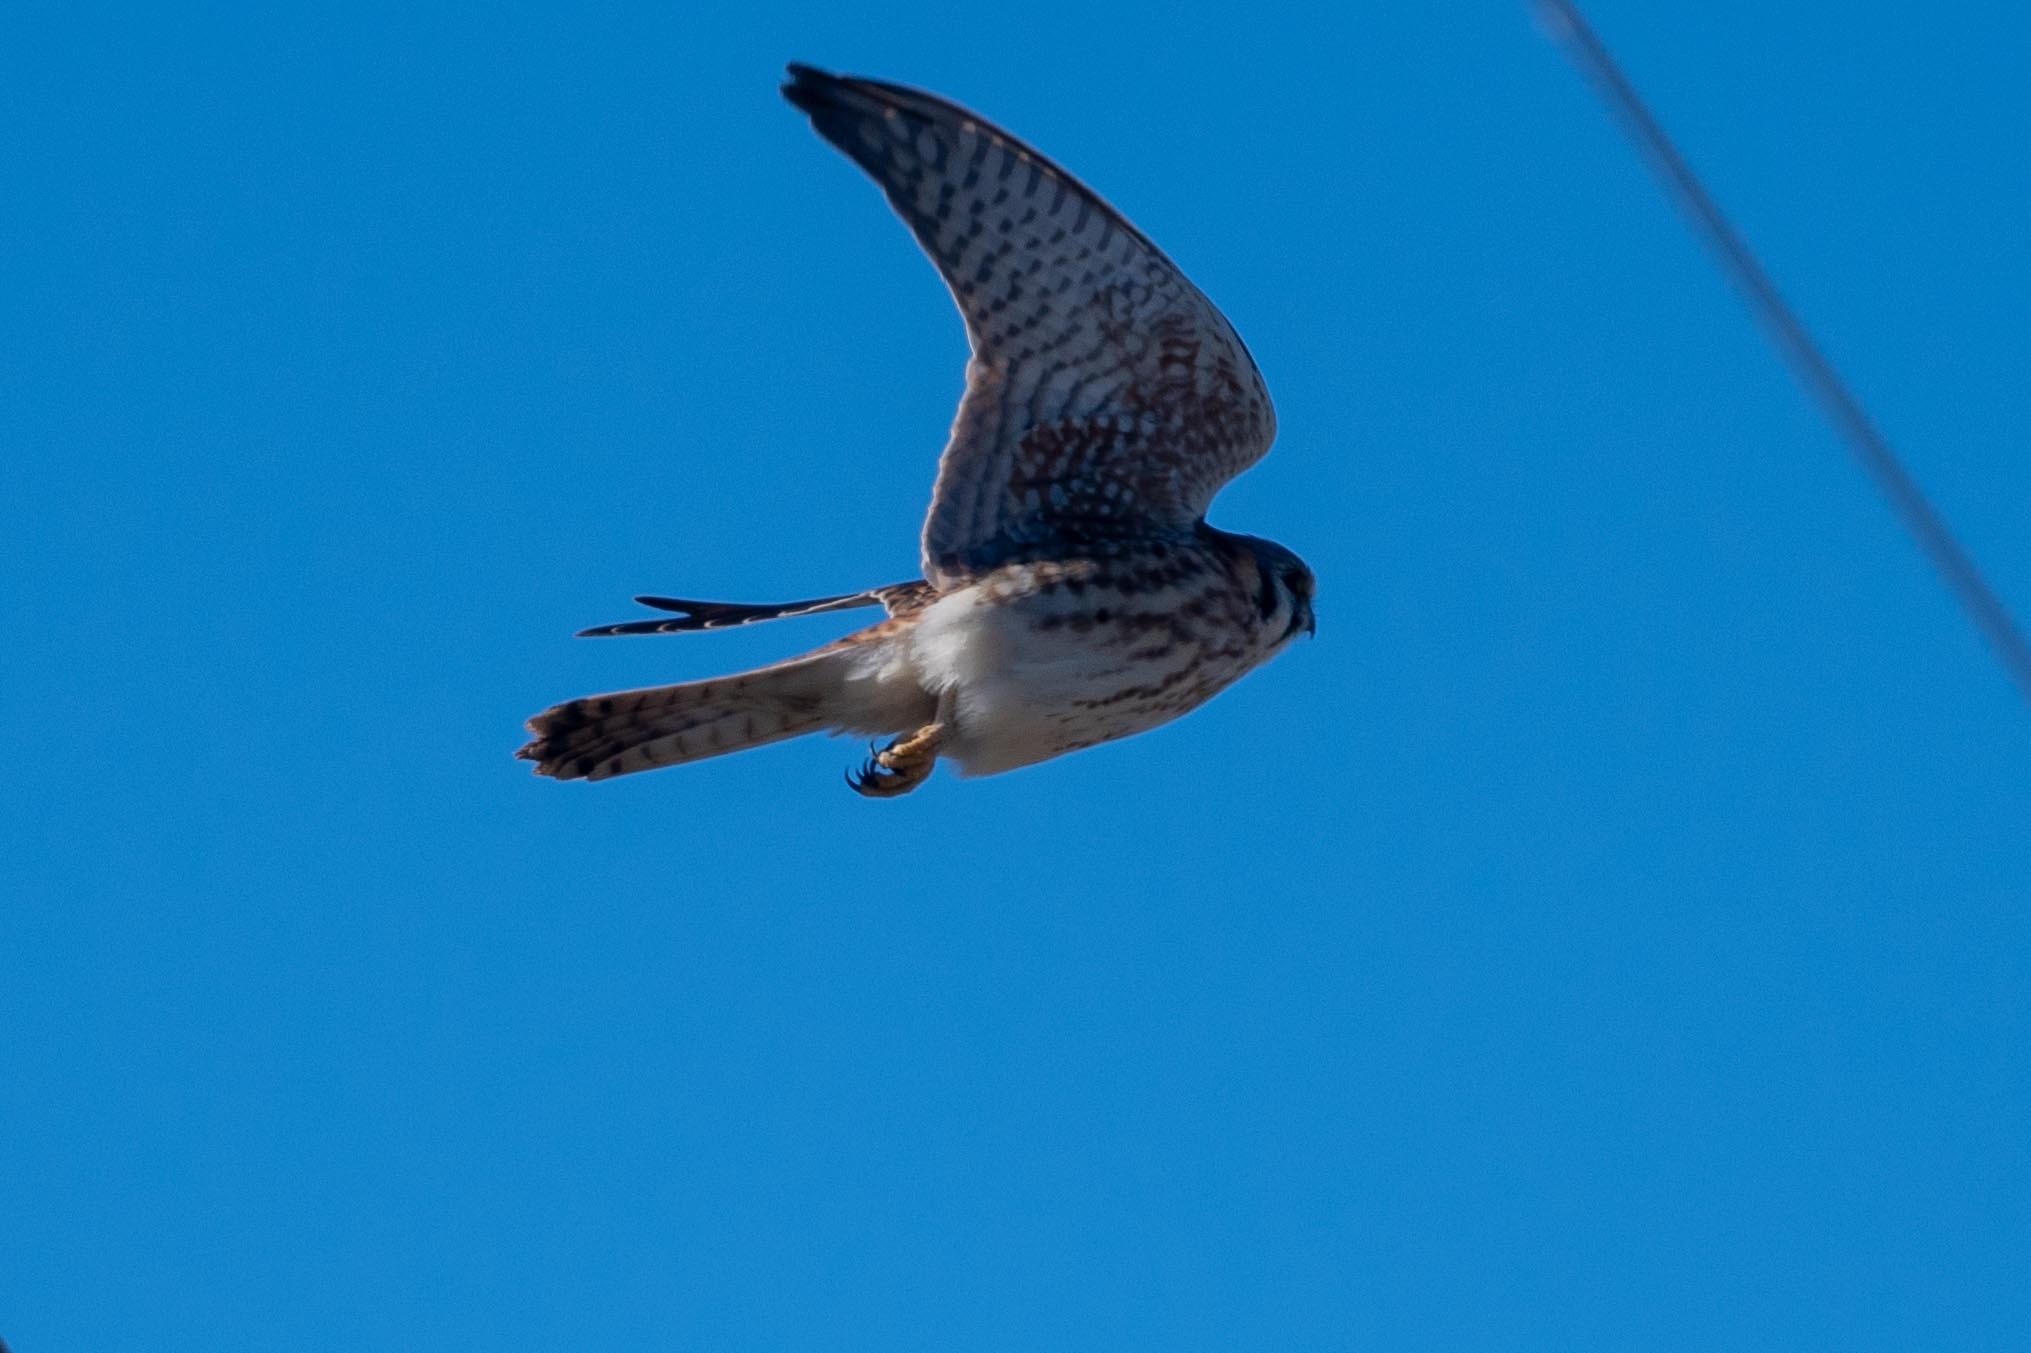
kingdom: Animalia
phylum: Chordata
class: Aves
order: Falconiformes
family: Falconidae
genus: Falco
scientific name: Falco sparverius
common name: American kestrel
